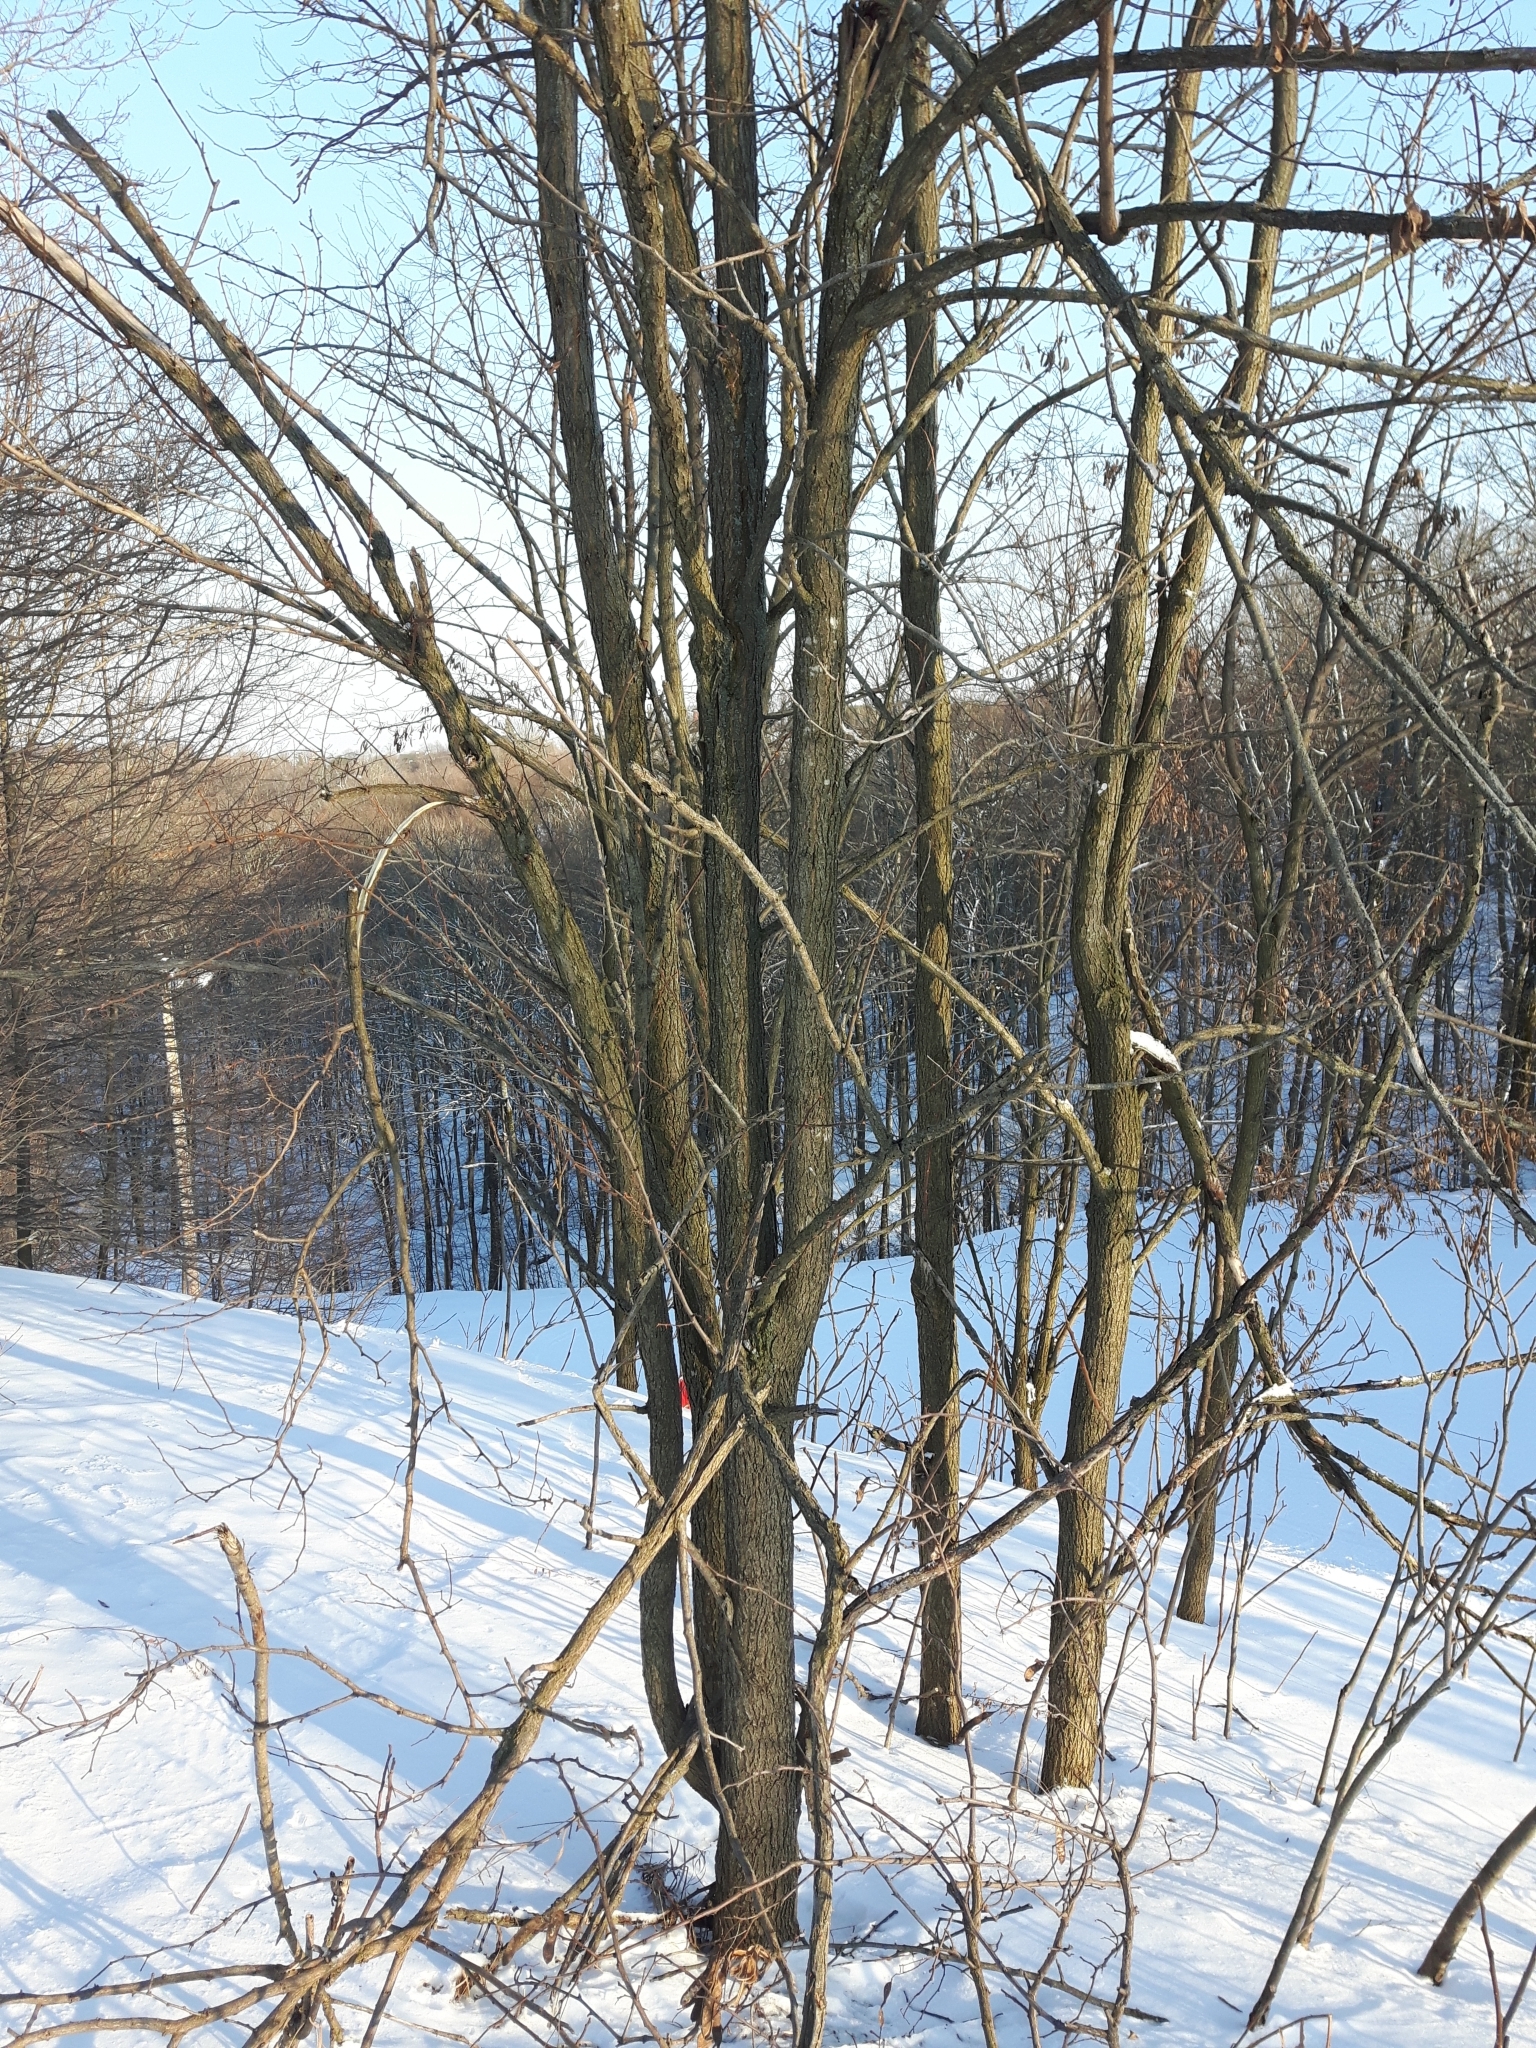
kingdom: Plantae
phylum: Tracheophyta
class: Magnoliopsida
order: Fabales
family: Fabaceae
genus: Robinia
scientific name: Robinia pseudoacacia
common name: Black locust
